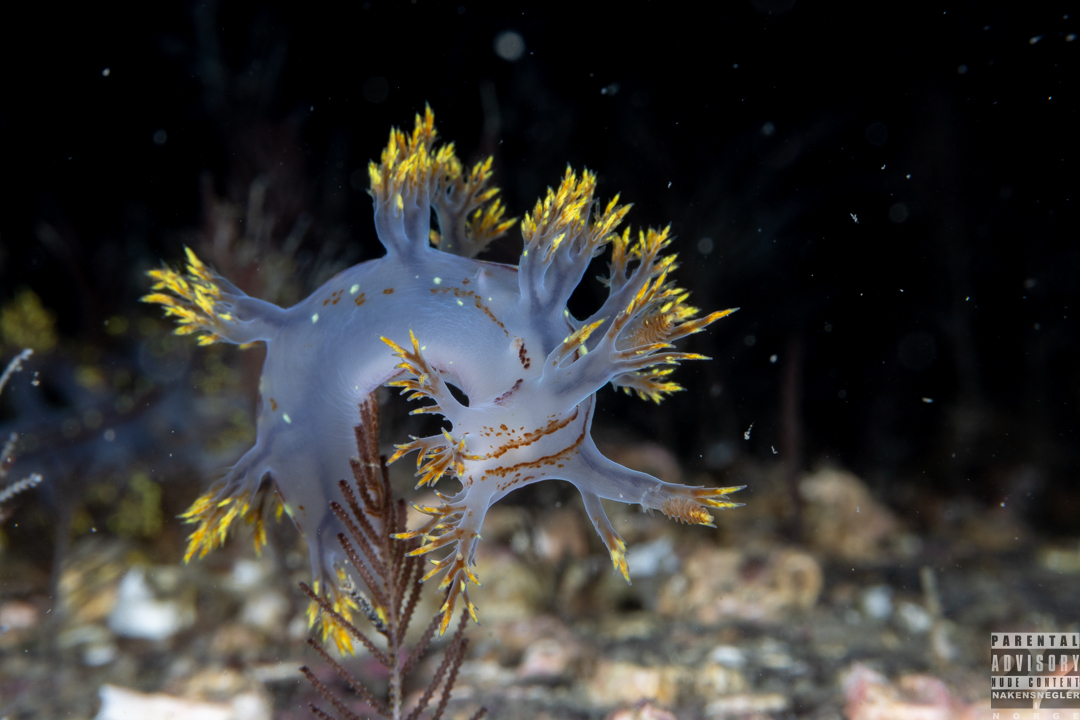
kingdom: Animalia
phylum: Mollusca
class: Gastropoda
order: Nudibranchia
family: Dendronotidae
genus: Dendronotus
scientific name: Dendronotus yrjargul
